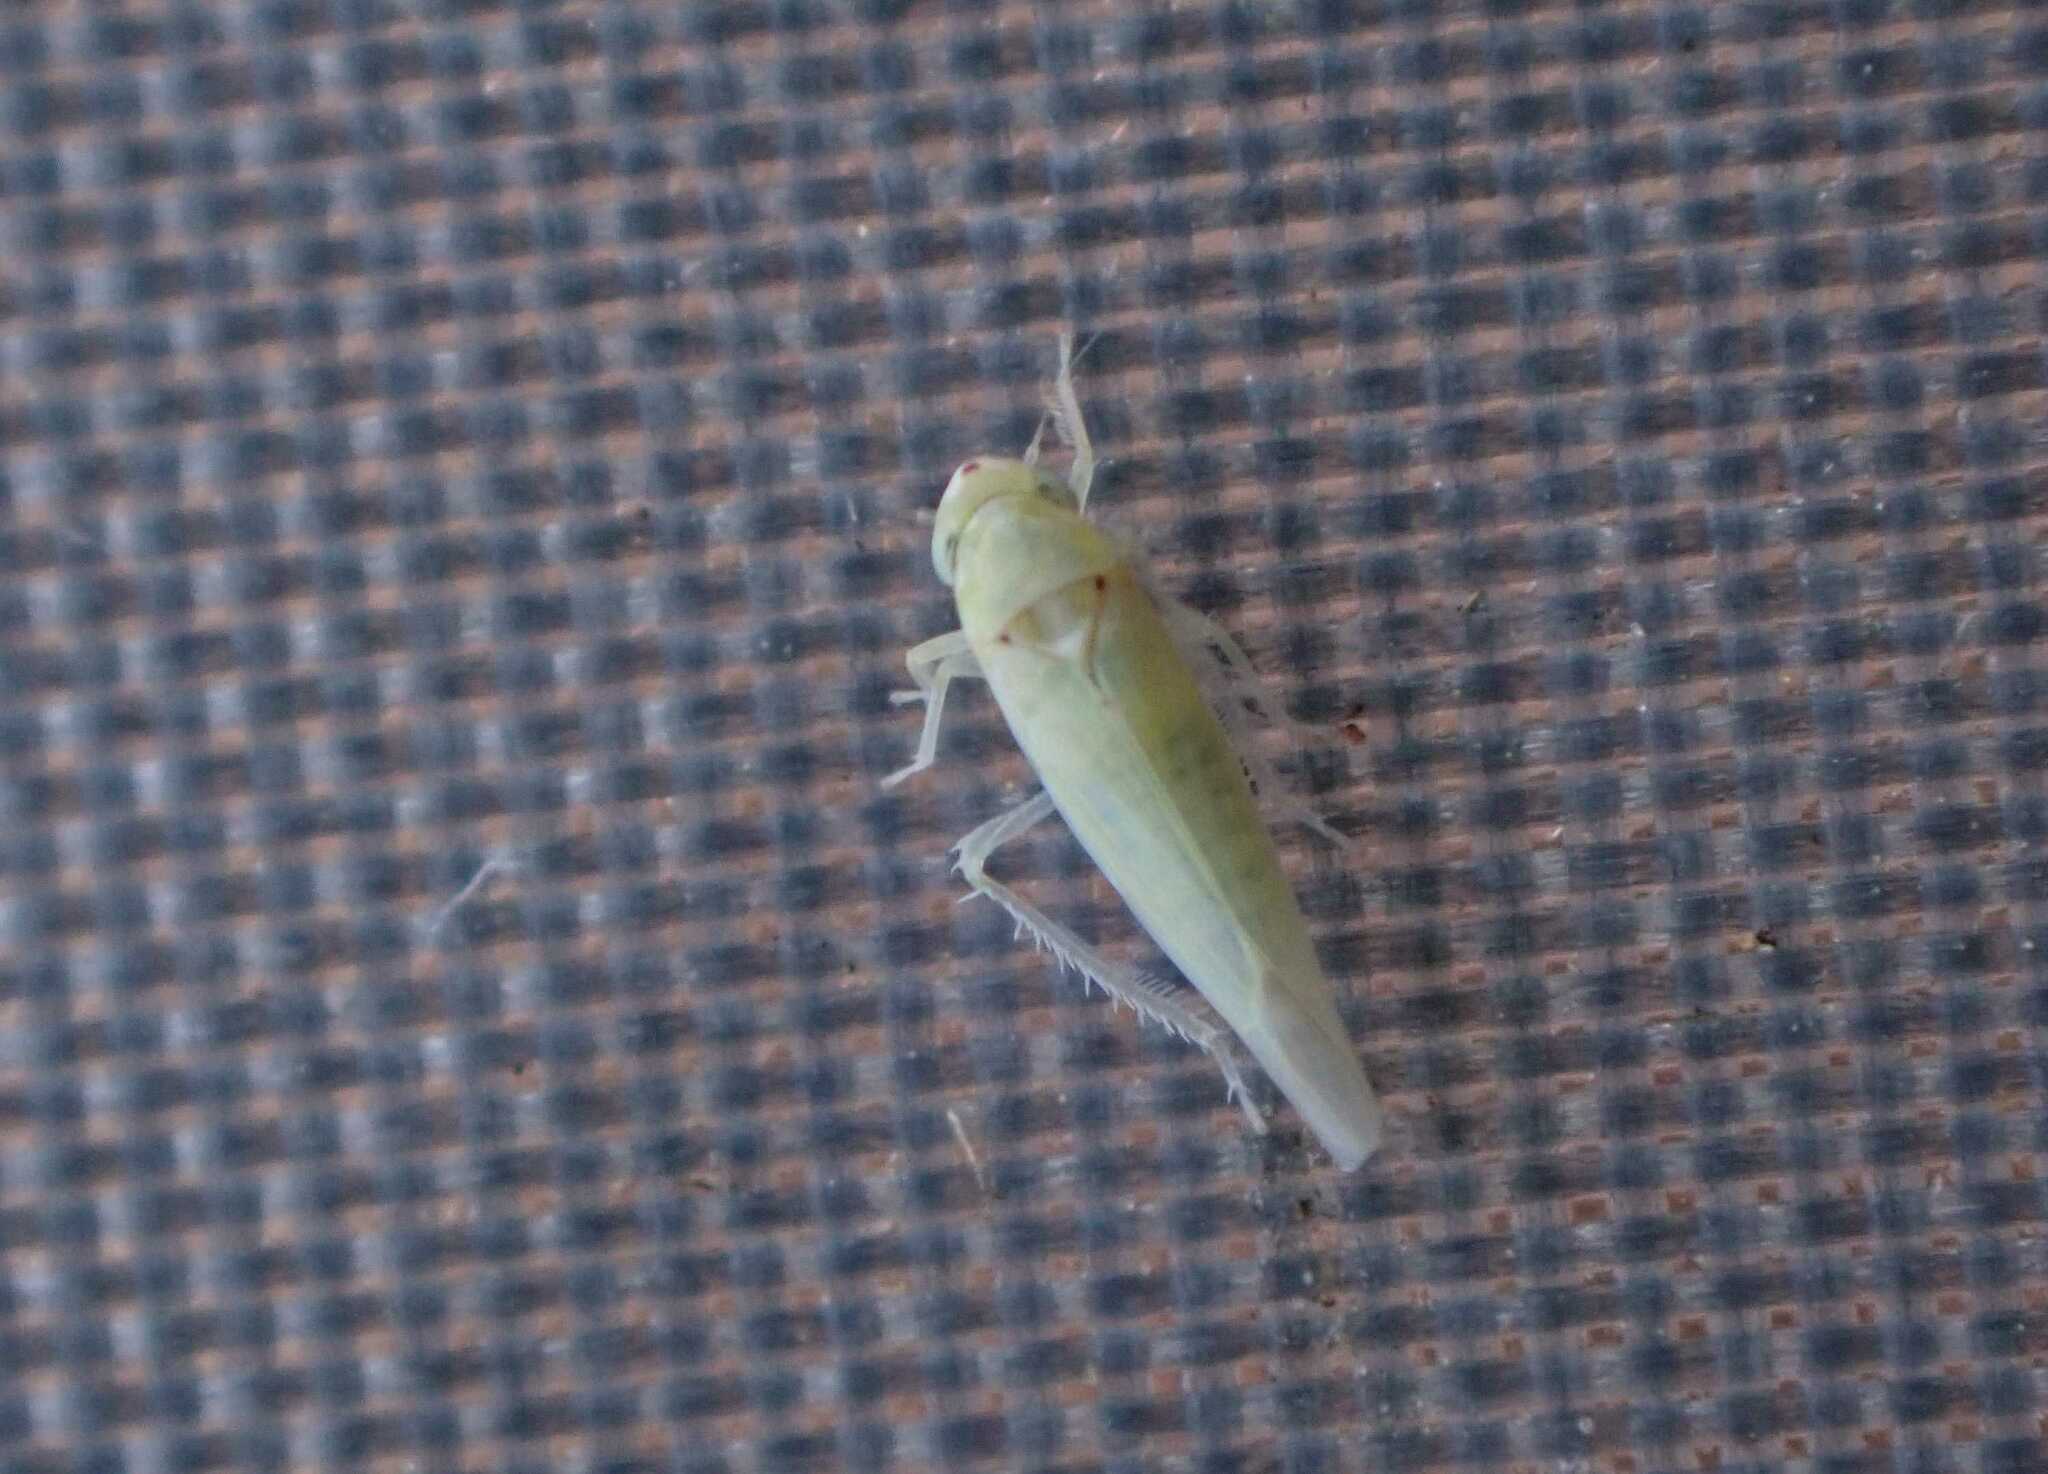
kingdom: Animalia
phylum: Arthropoda
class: Insecta
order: Hemiptera
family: Cicadellidae
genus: Zygina
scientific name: Zygina nivea
